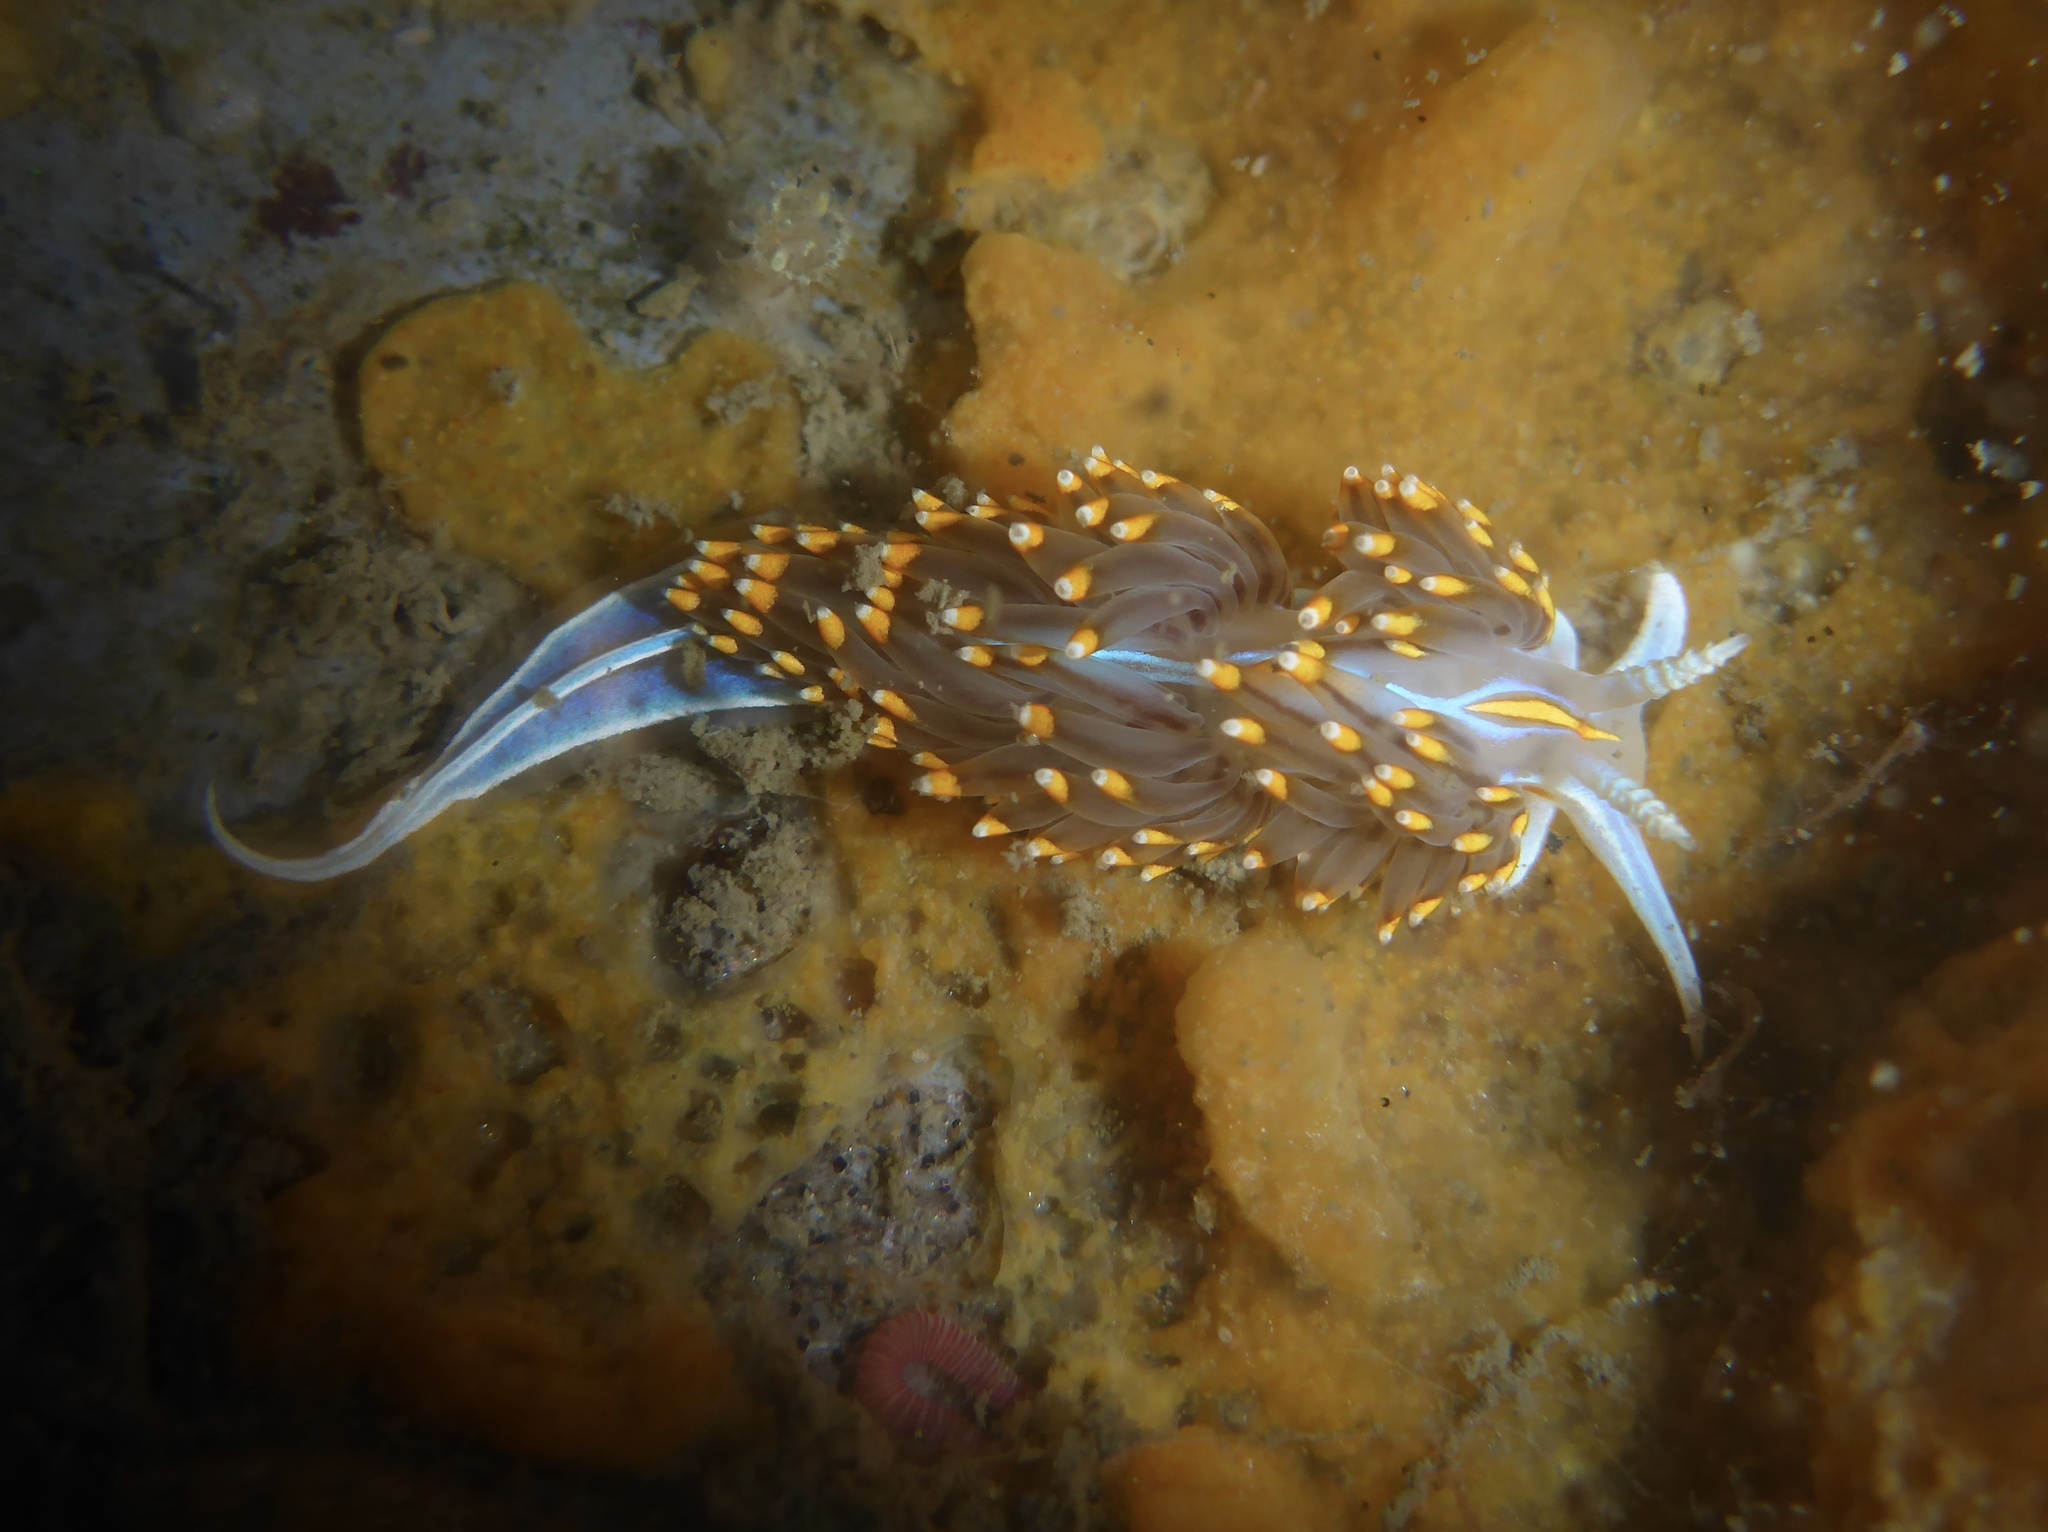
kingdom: Animalia
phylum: Mollusca
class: Gastropoda
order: Nudibranchia
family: Myrrhinidae
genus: Hermissenda
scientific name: Hermissenda opalescens
